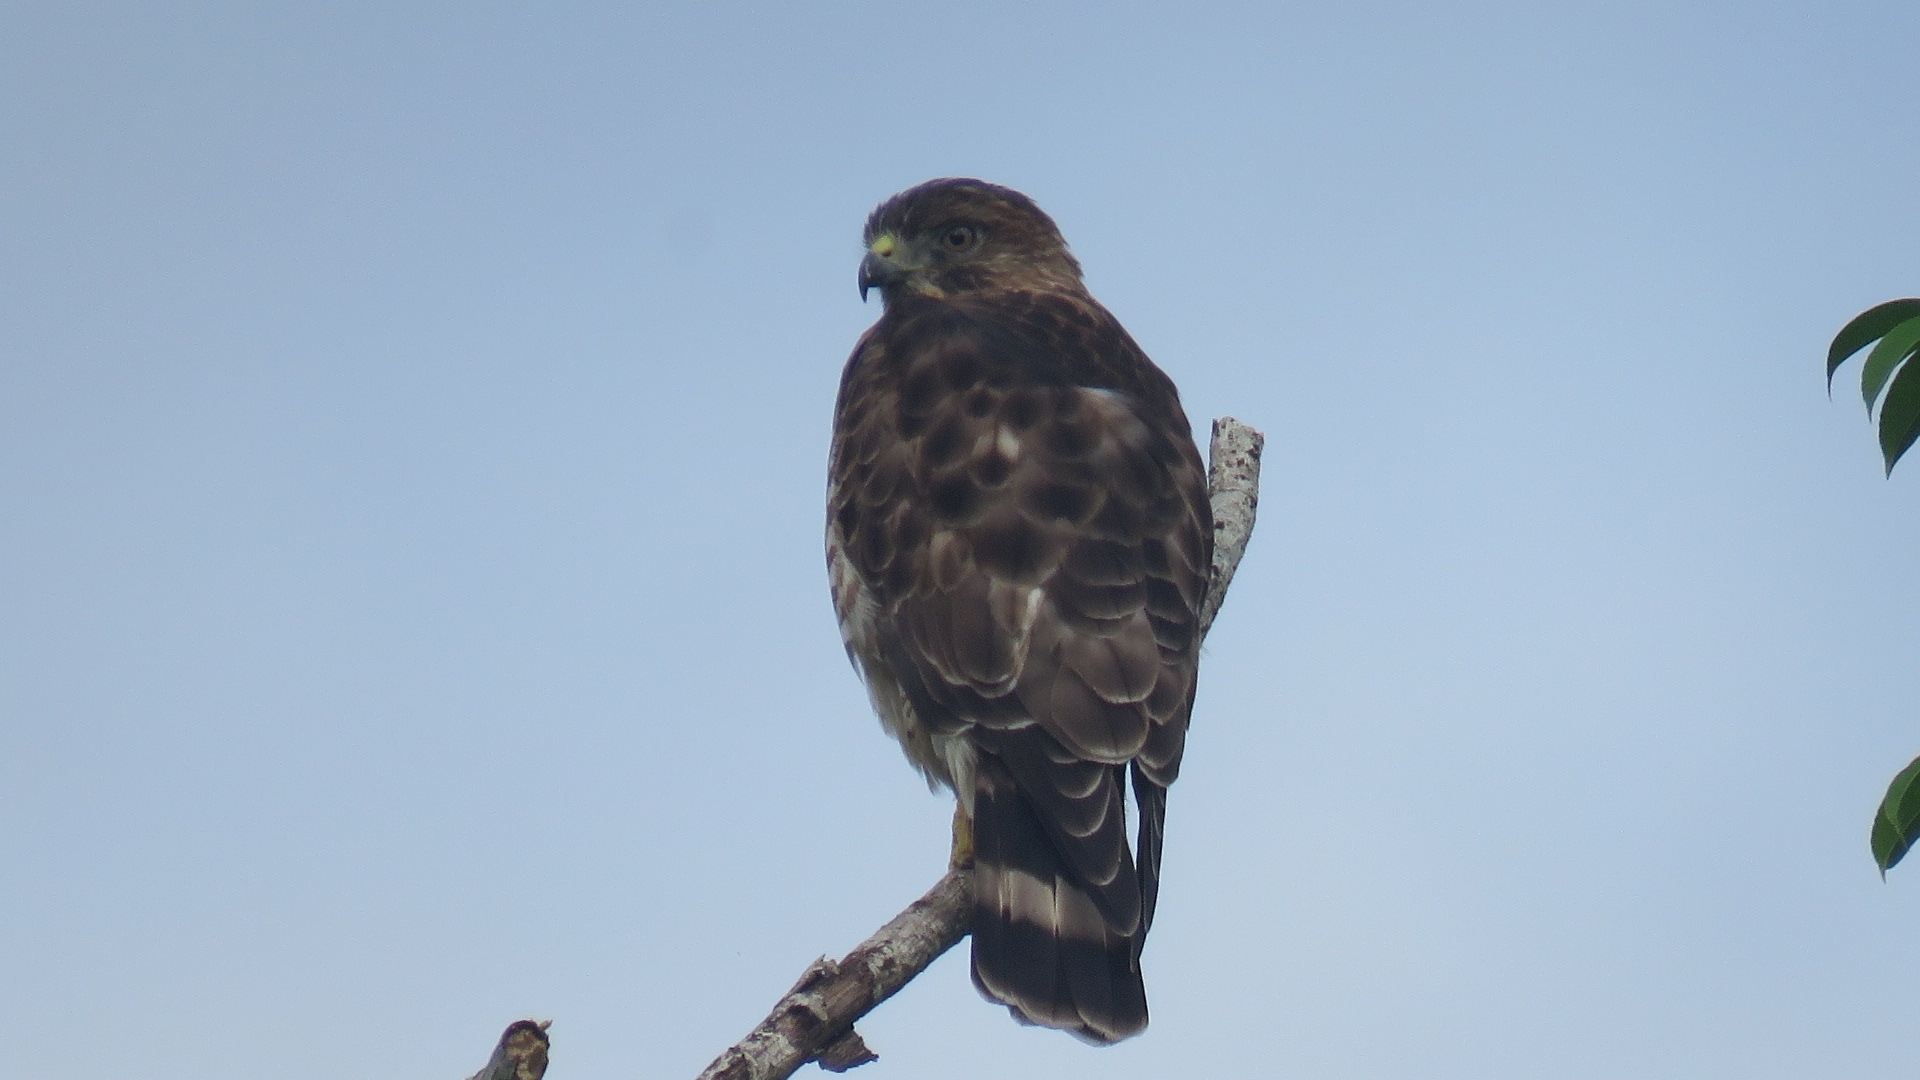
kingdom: Animalia
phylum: Chordata
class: Aves
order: Accipitriformes
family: Accipitridae
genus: Buteo
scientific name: Buteo platypterus
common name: Broad-winged hawk
